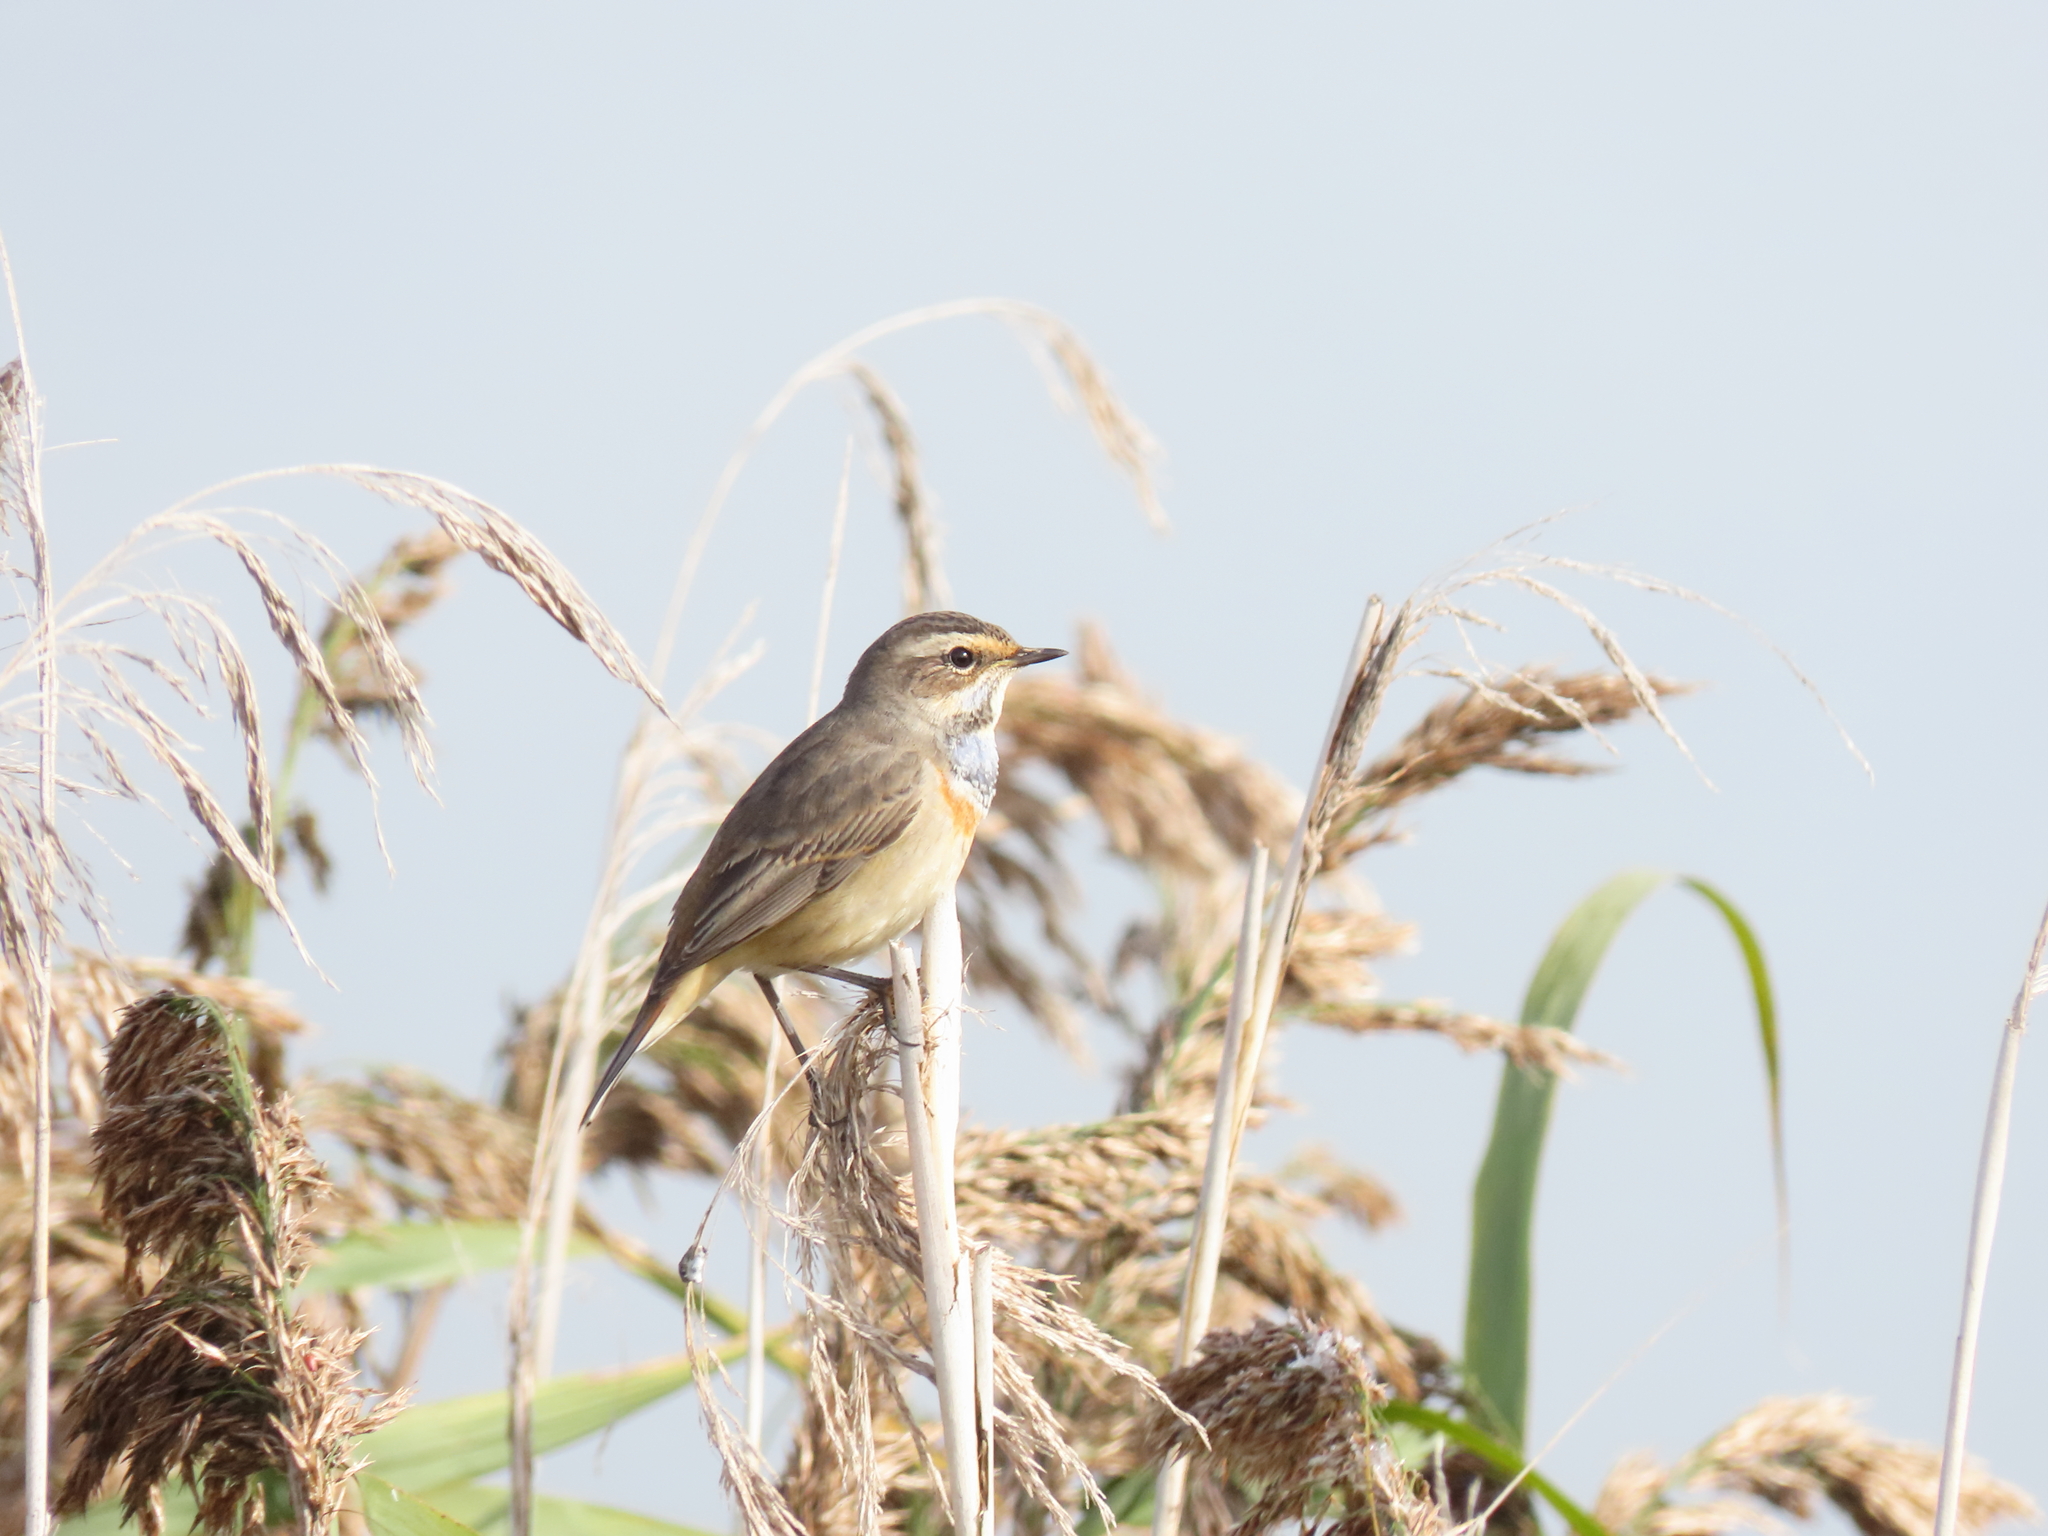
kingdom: Animalia
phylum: Chordata
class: Aves
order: Passeriformes
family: Muscicapidae
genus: Luscinia
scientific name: Luscinia svecica
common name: Bluethroat
